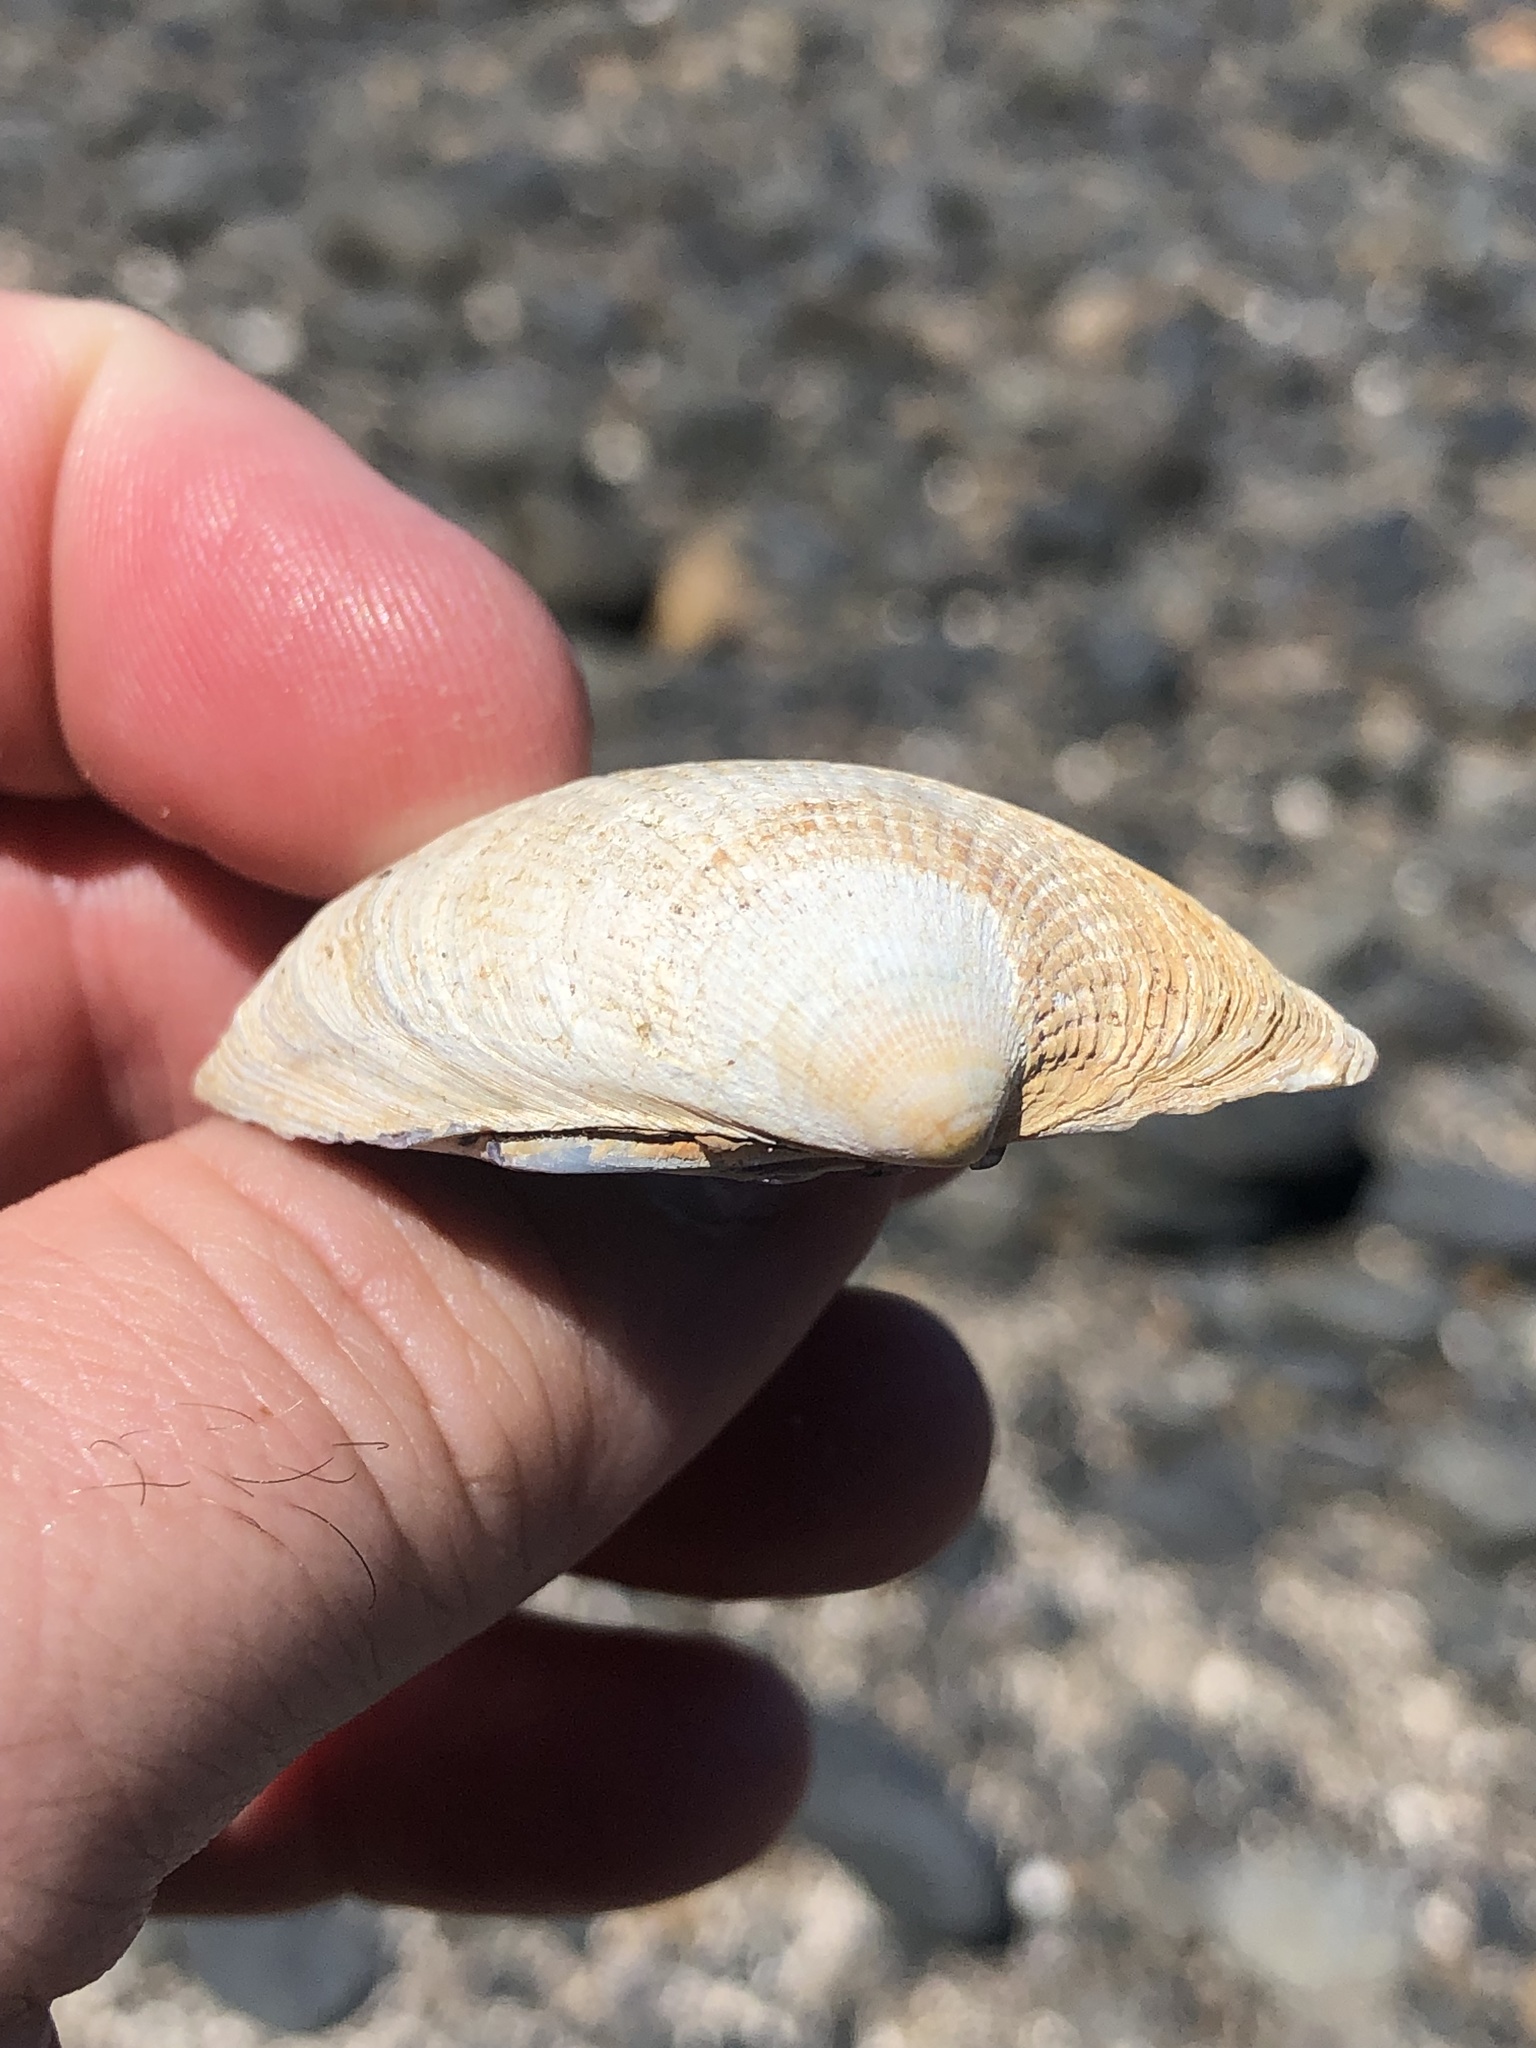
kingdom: Animalia
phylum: Mollusca
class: Bivalvia
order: Venerida
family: Veneridae
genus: Austrovenus
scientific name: Austrovenus stutchburyi
